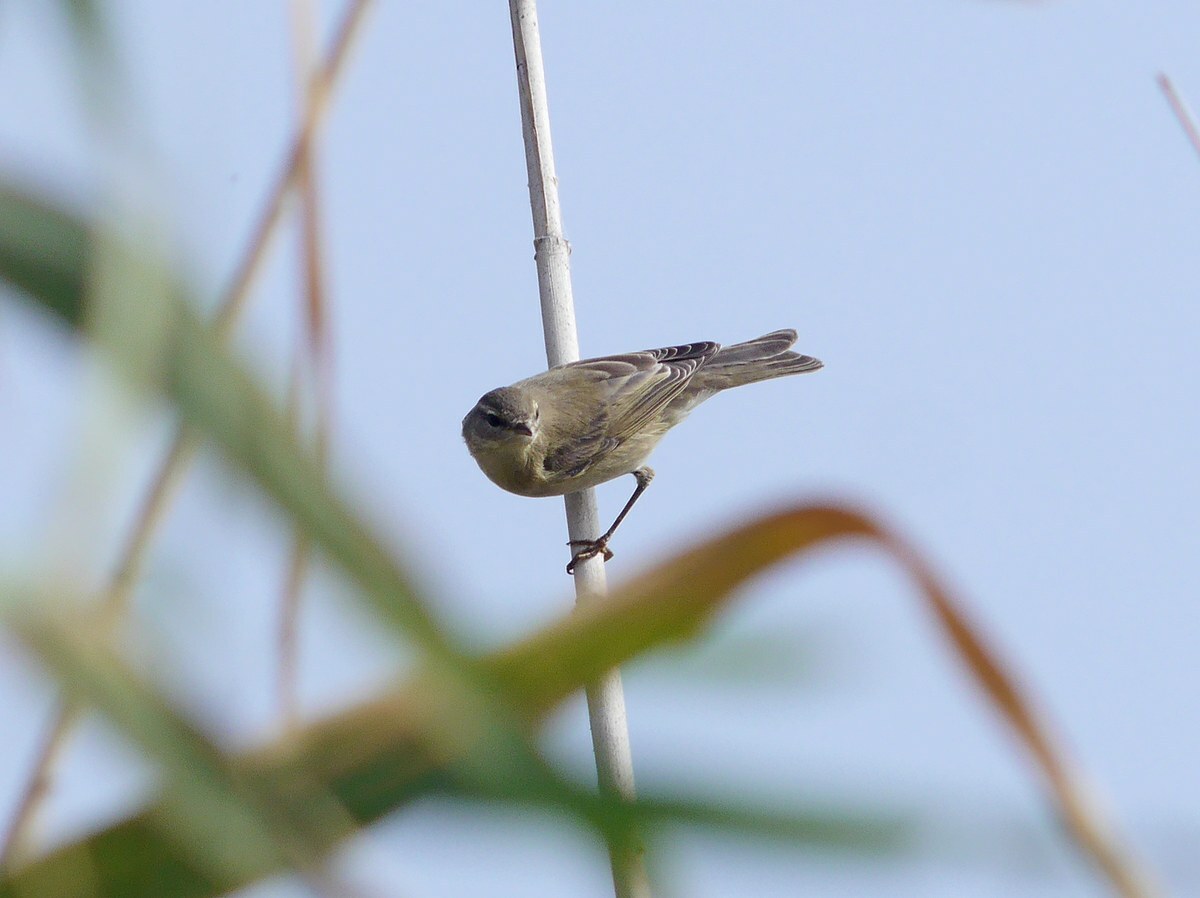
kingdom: Animalia
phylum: Chordata
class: Aves
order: Passeriformes
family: Phylloscopidae
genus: Phylloscopus
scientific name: Phylloscopus trochilus
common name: Willow warbler
